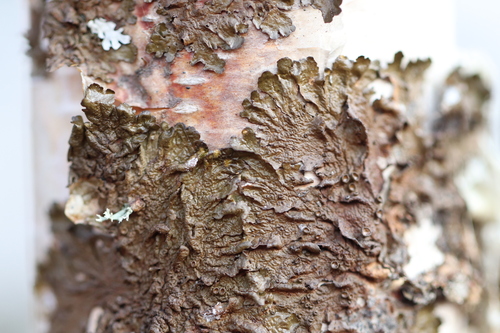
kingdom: Fungi
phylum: Ascomycota
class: Lecanoromycetes
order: Lecanorales
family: Parmeliaceae
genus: Melanohalea
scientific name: Melanohalea olivacea
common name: Spotted camouflage lichen
